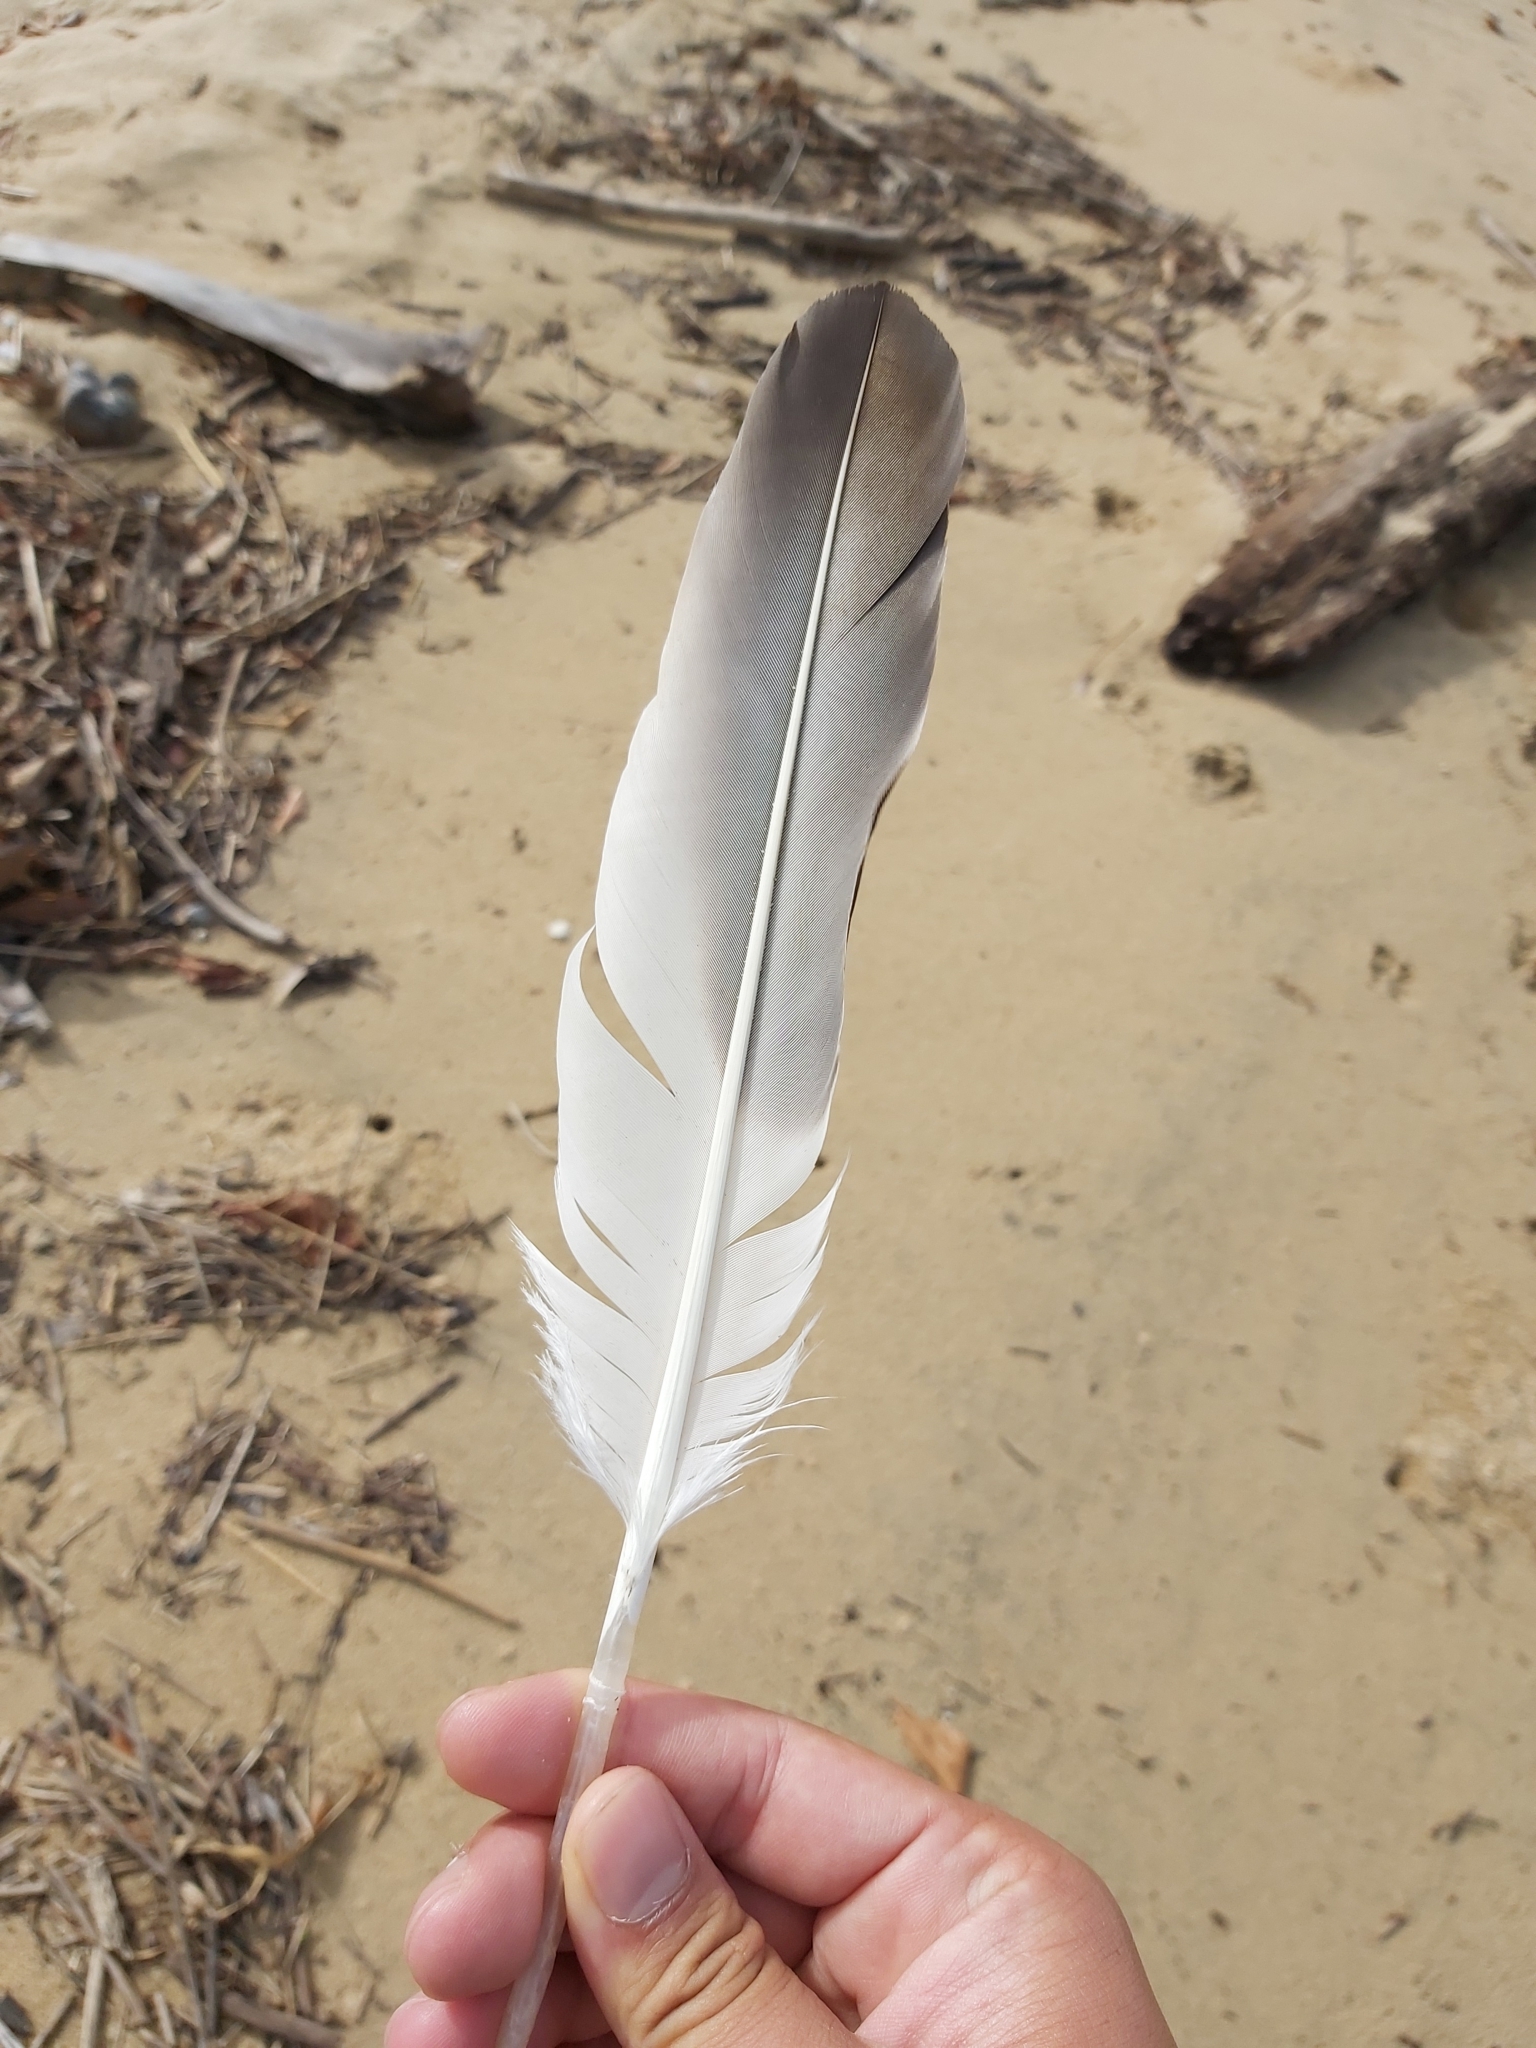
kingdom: Animalia
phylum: Chordata
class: Aves
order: Pelecaniformes
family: Pelecanidae
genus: Pelecanus
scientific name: Pelecanus conspicillatus
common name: Australian pelican
